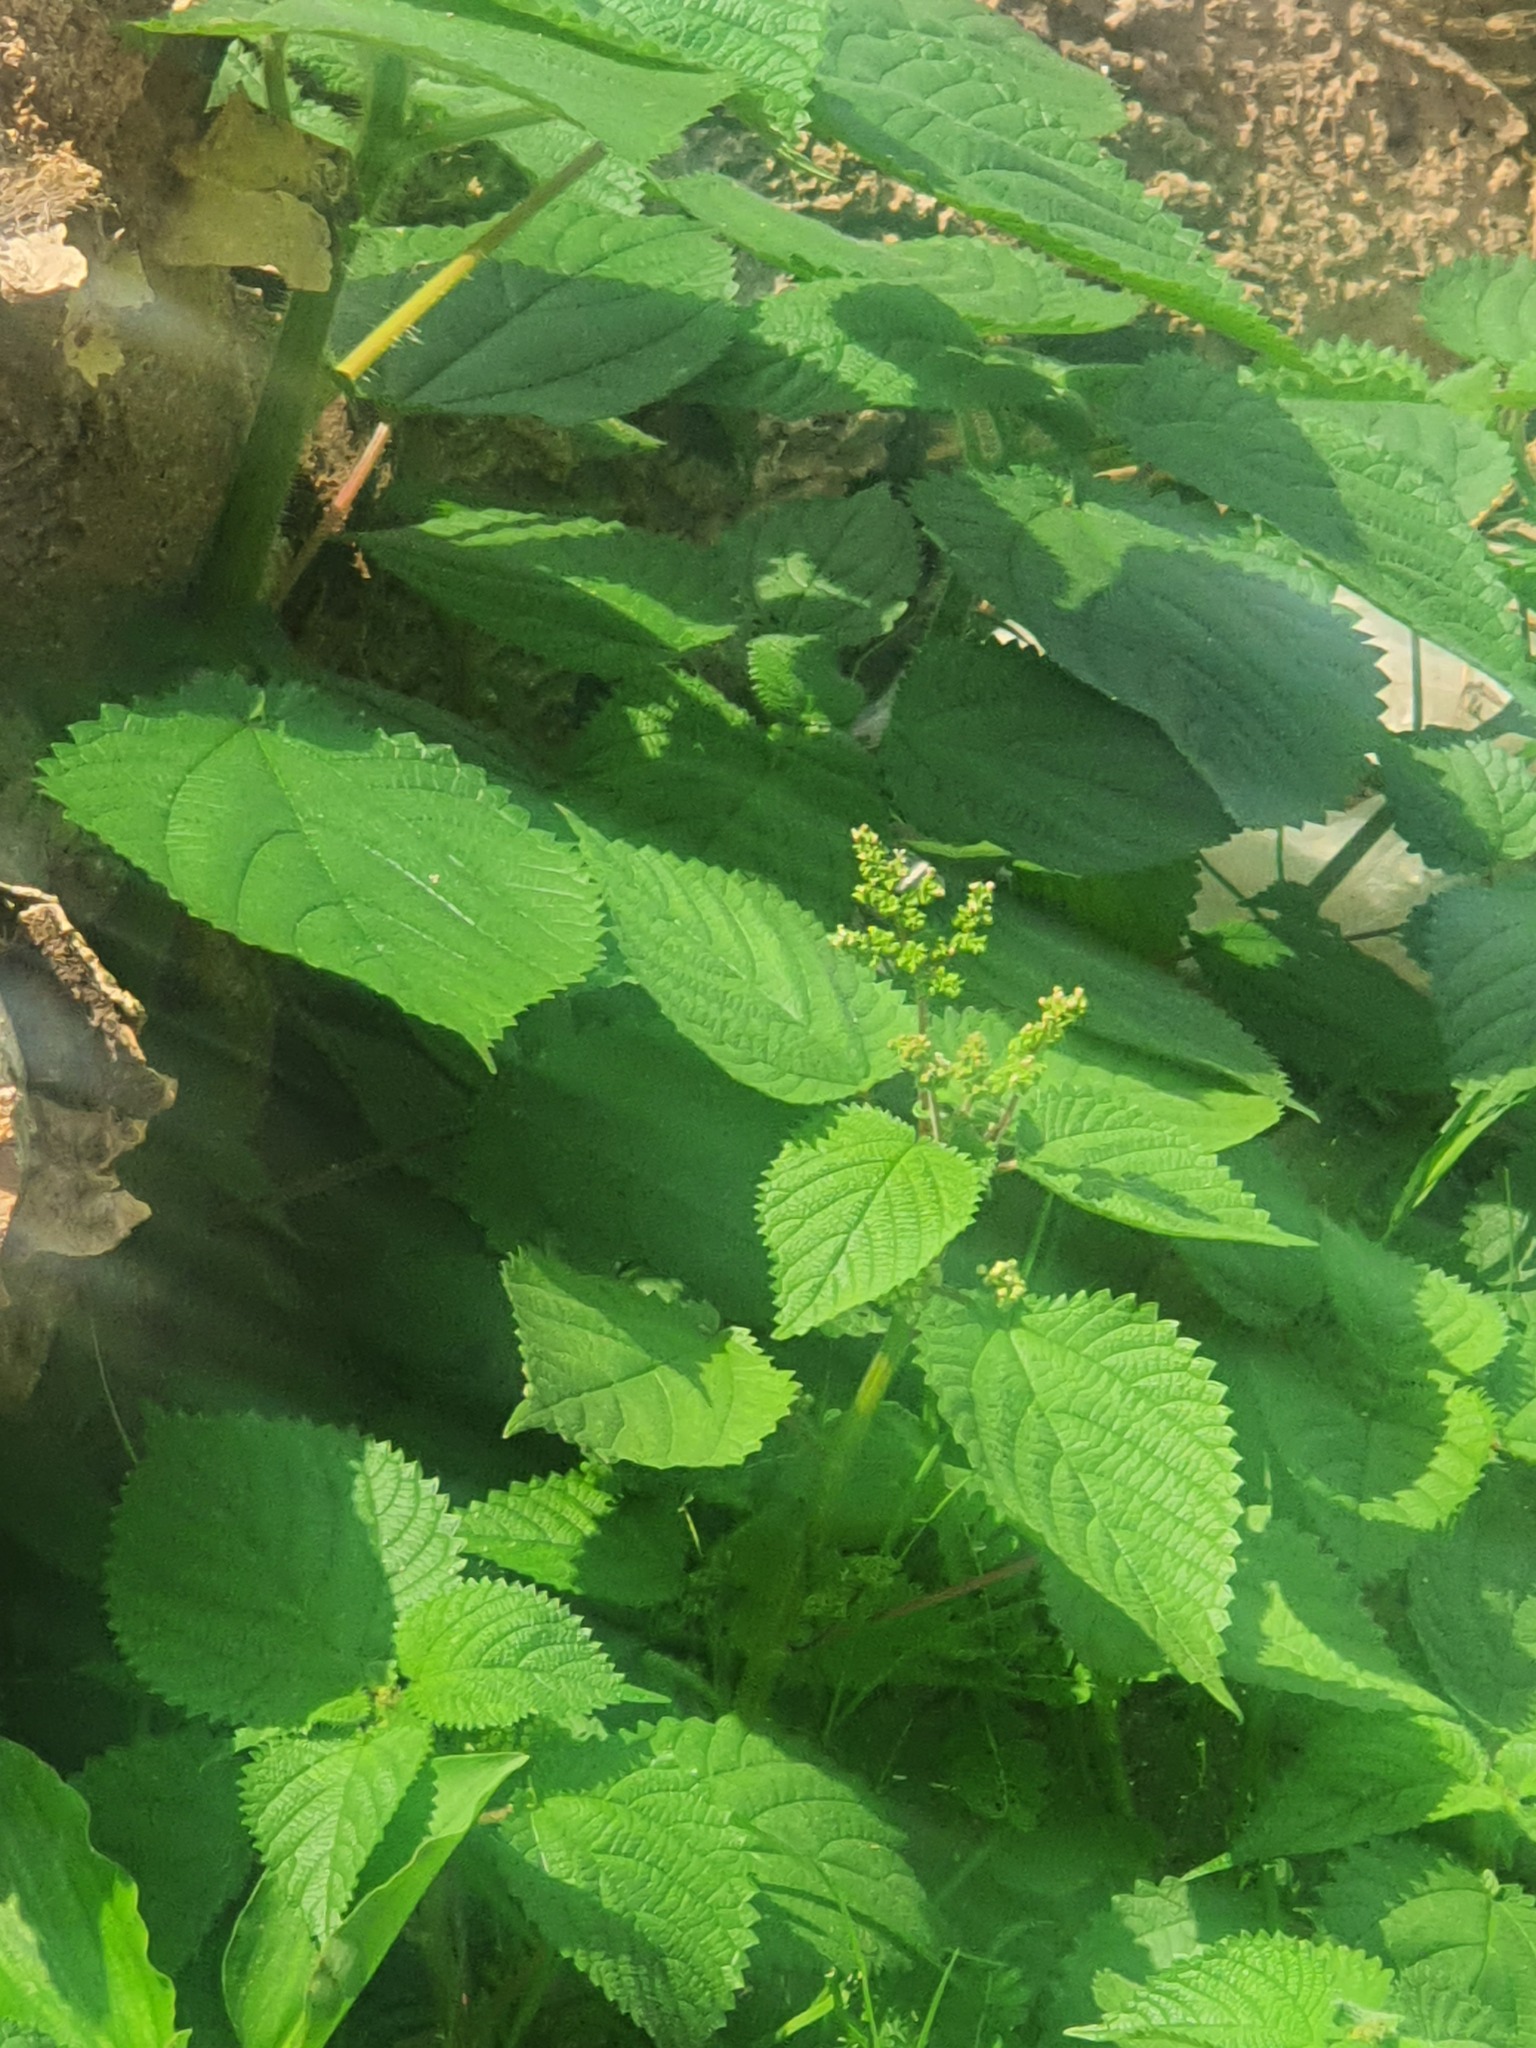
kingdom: Plantae
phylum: Tracheophyta
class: Magnoliopsida
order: Rosales
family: Urticaceae
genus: Laportea
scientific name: Laportea aestuans
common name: West indian woodnettle
